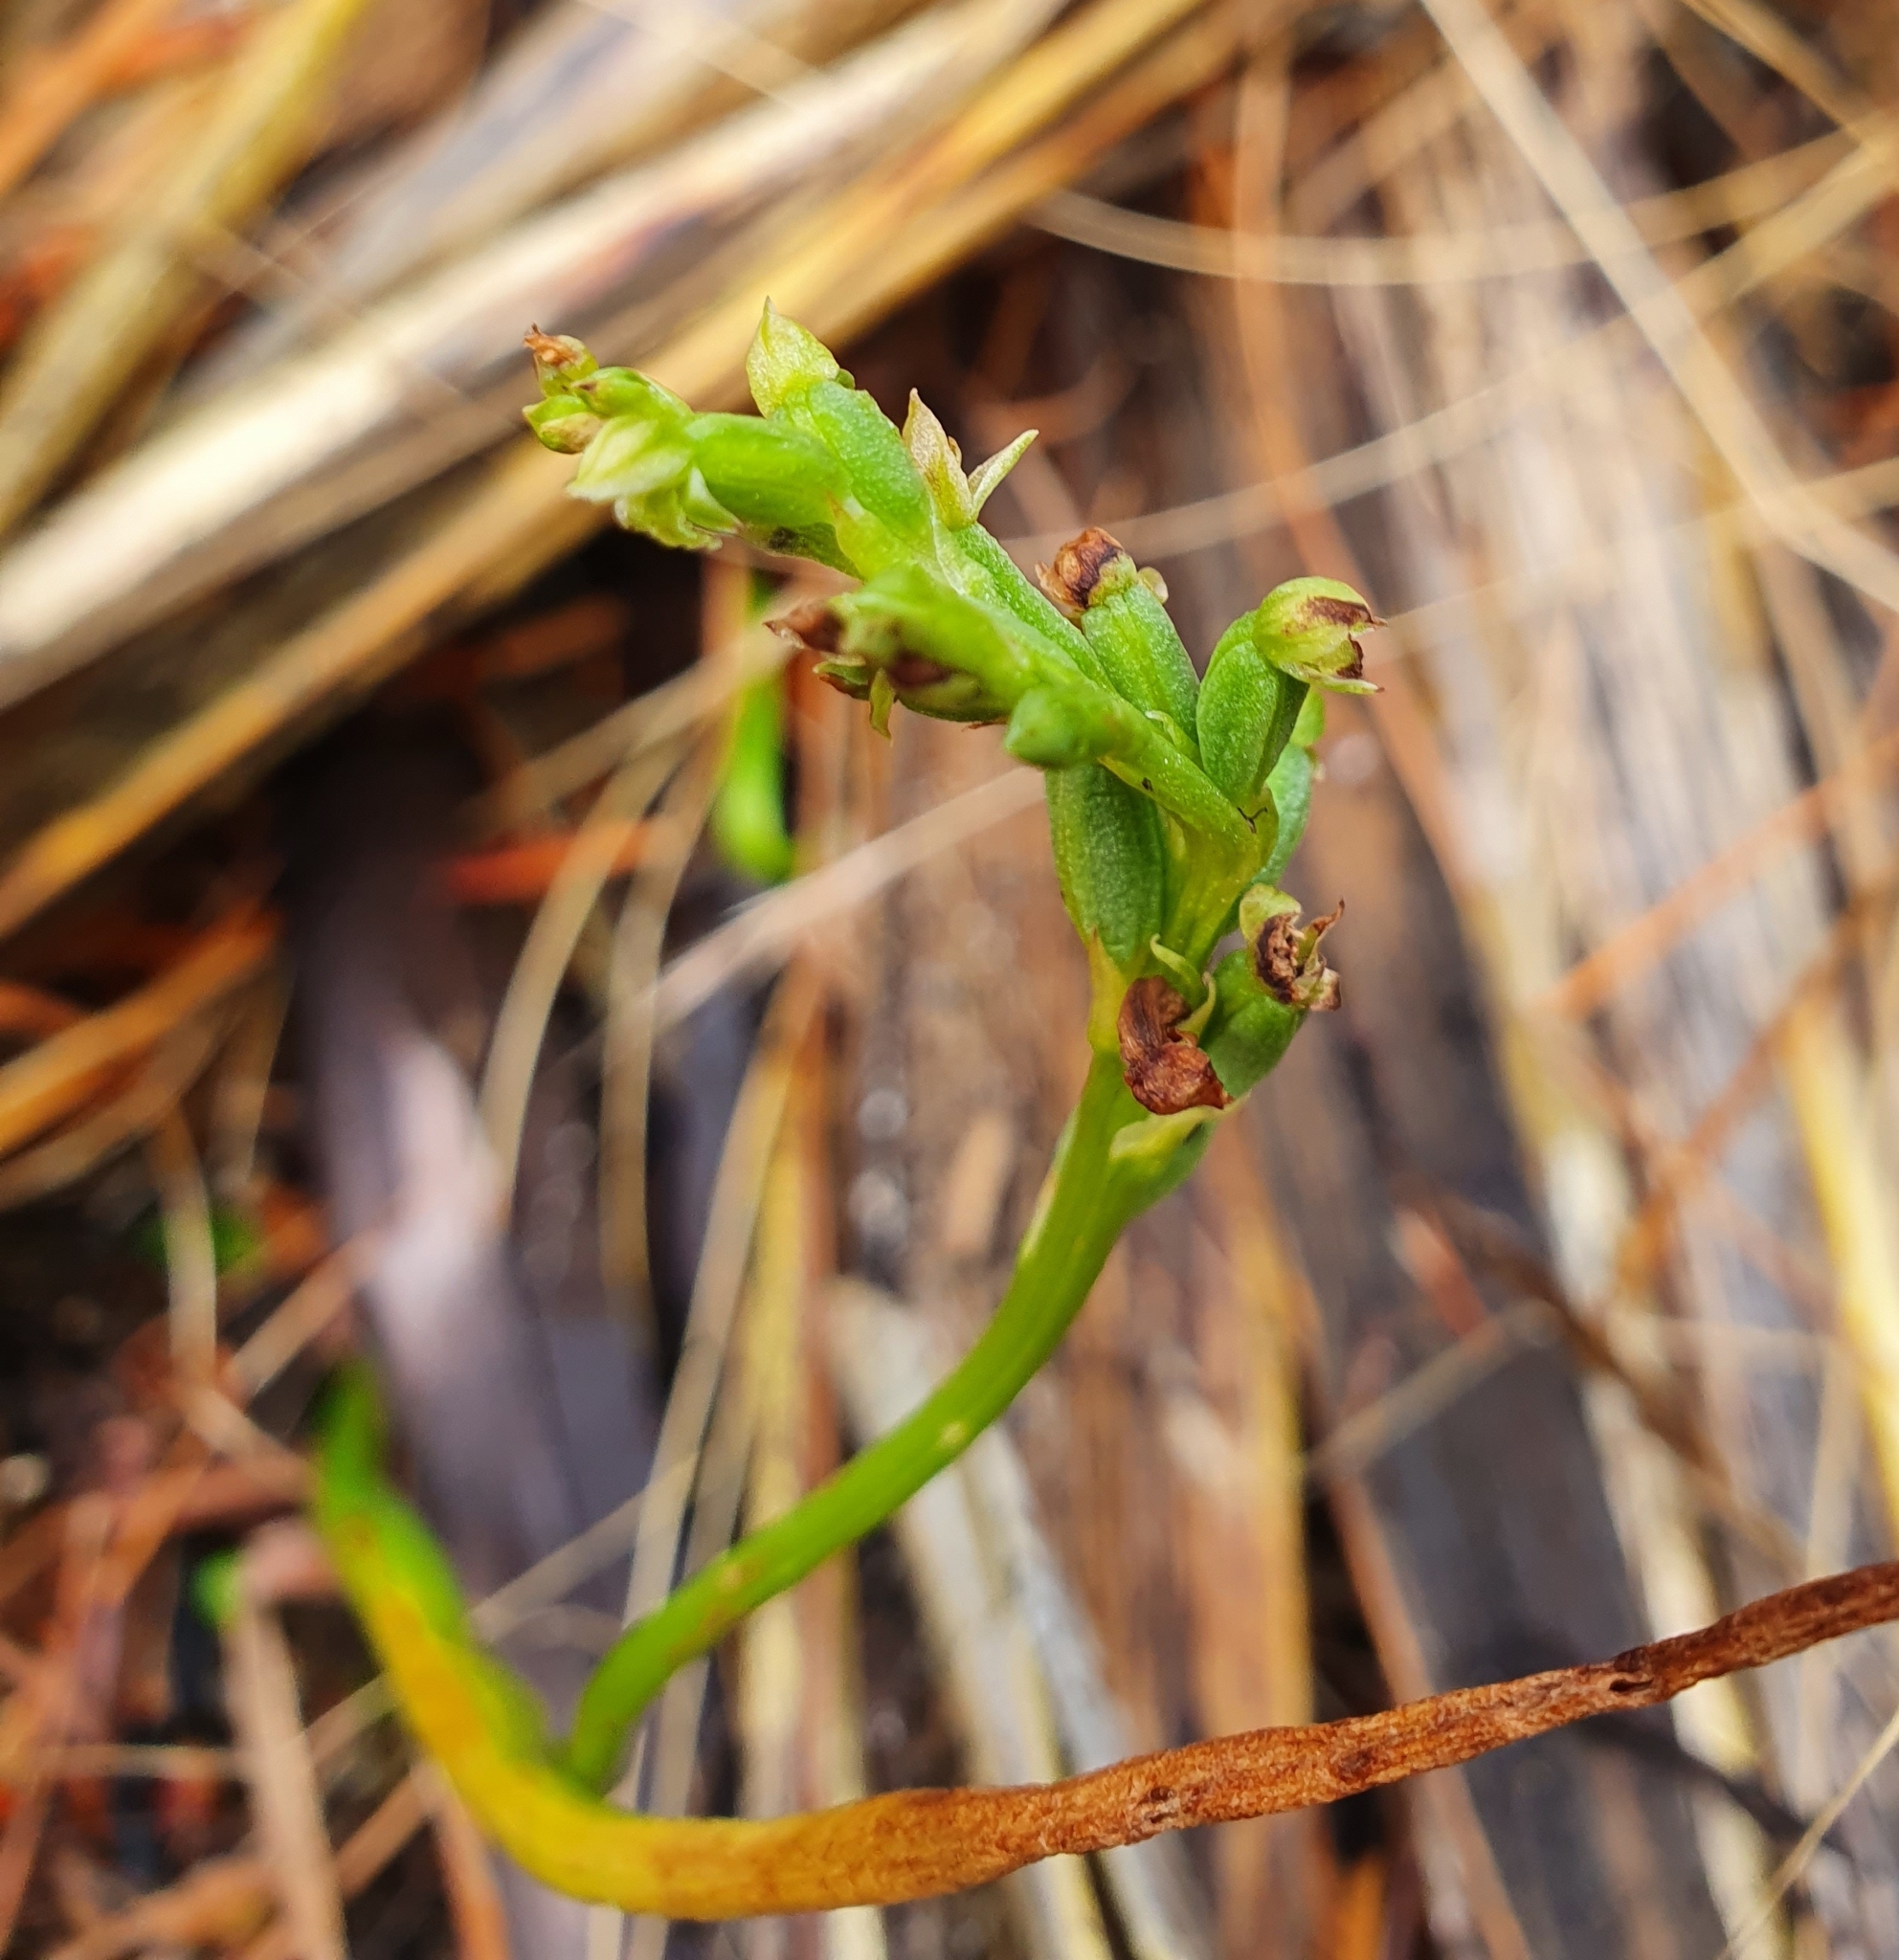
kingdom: Plantae
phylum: Tracheophyta
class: Liliopsida
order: Asparagales
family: Orchidaceae
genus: Microtis
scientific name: Microtis unifolia
